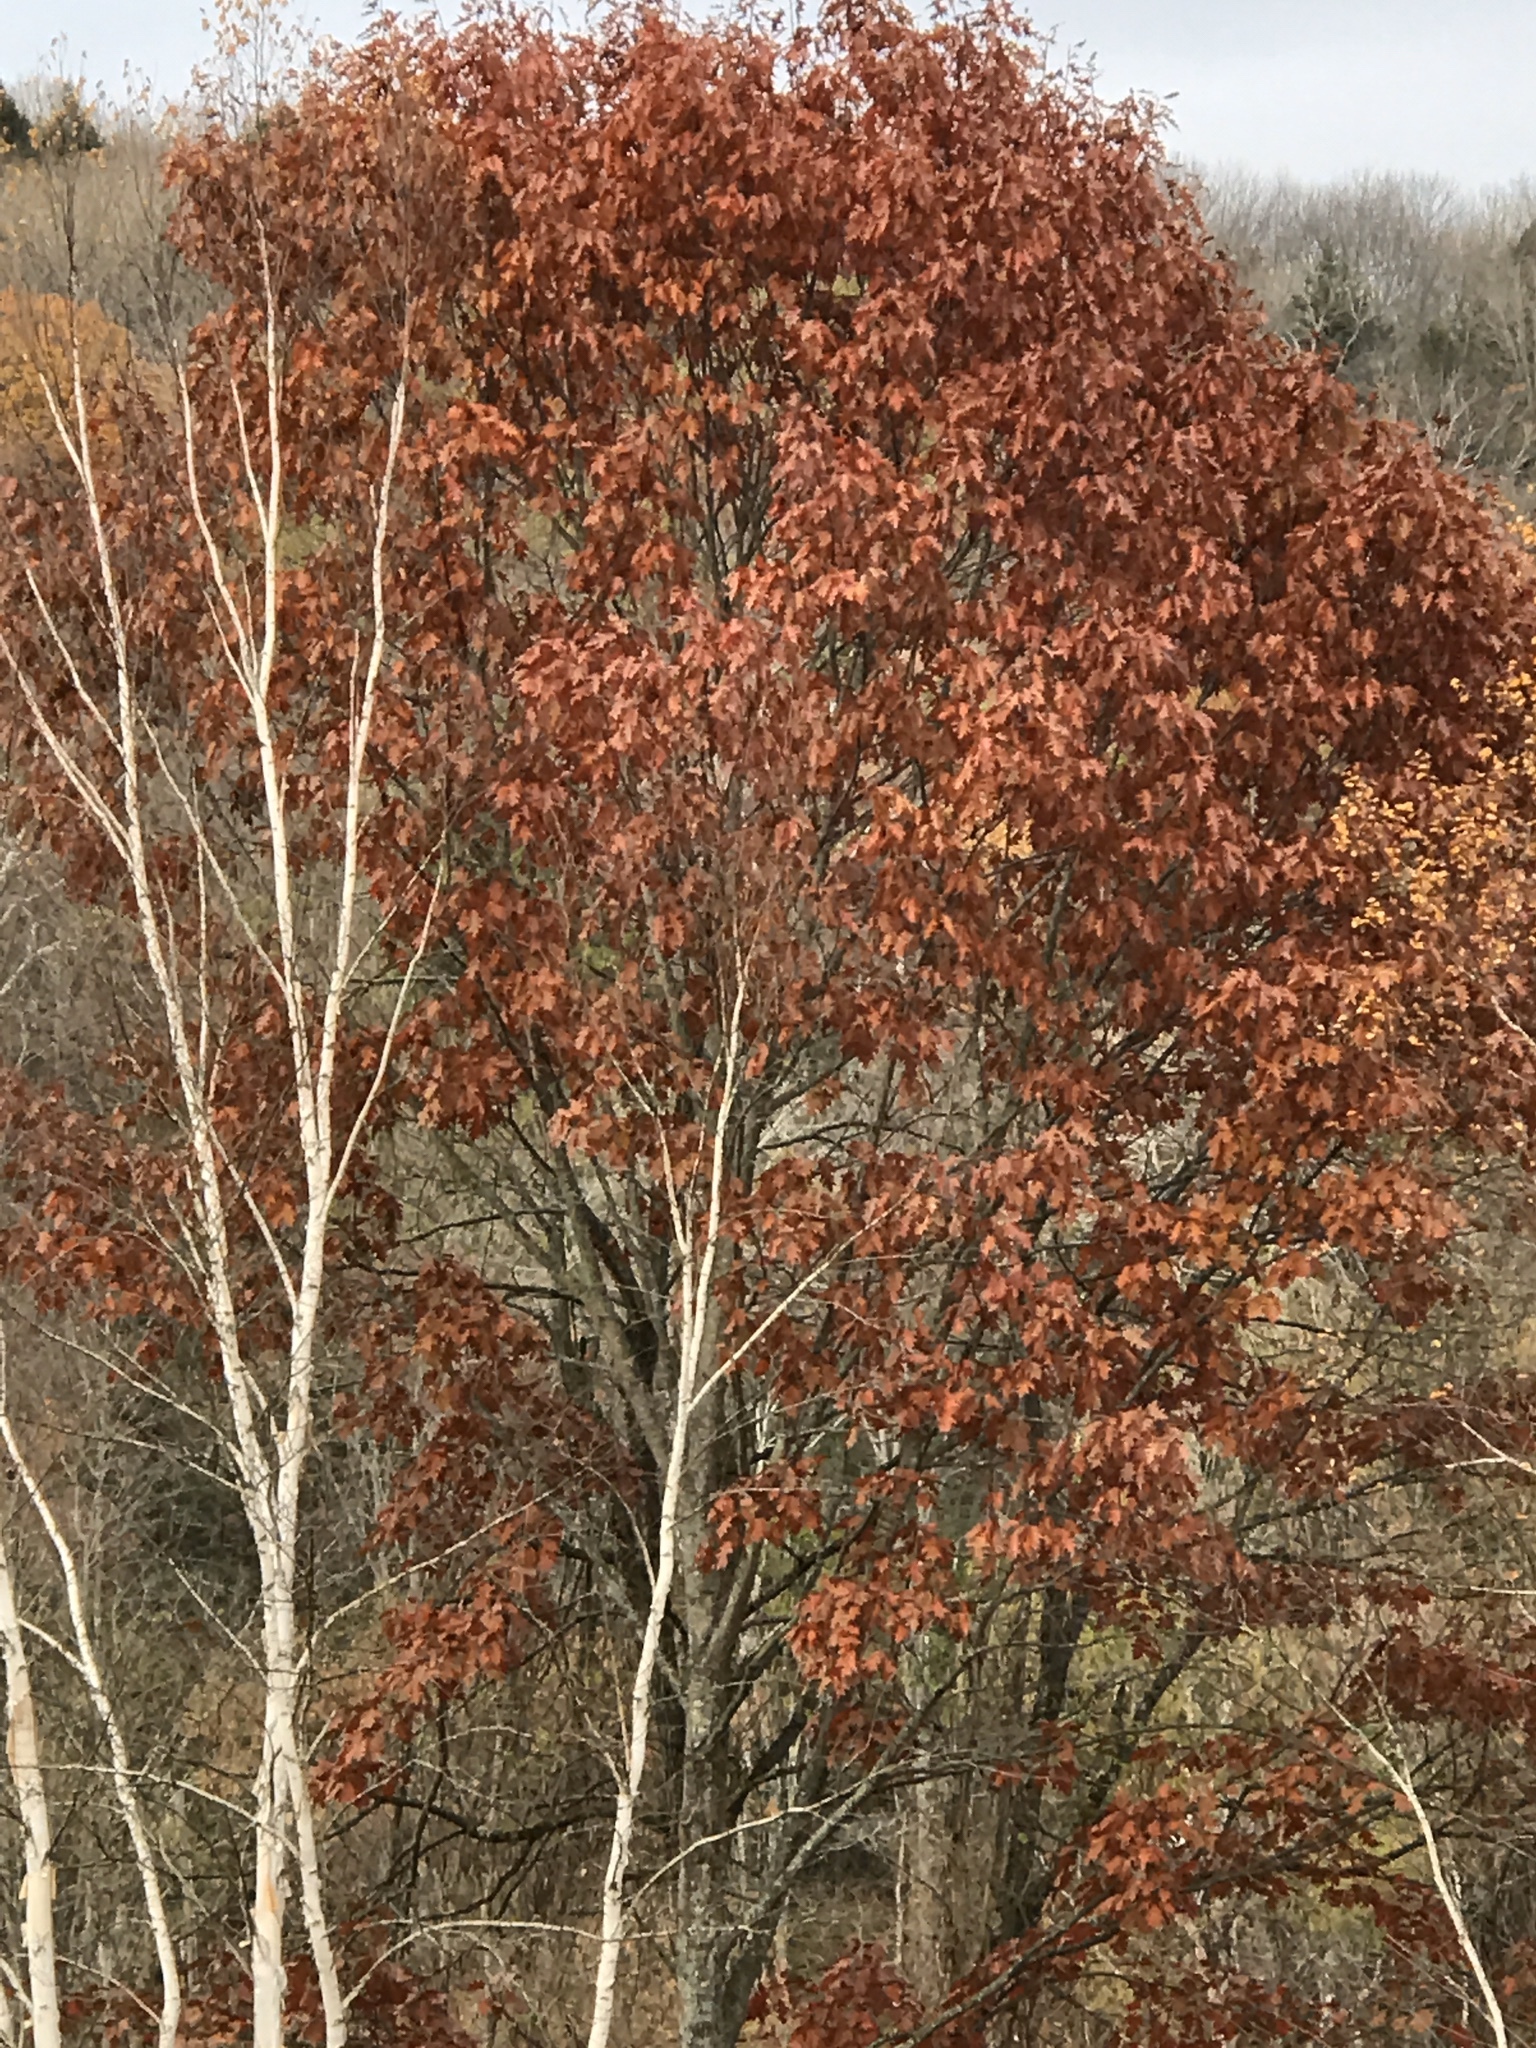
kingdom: Plantae
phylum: Tracheophyta
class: Magnoliopsida
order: Fagales
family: Fagaceae
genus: Quercus
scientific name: Quercus rubra
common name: Red oak
